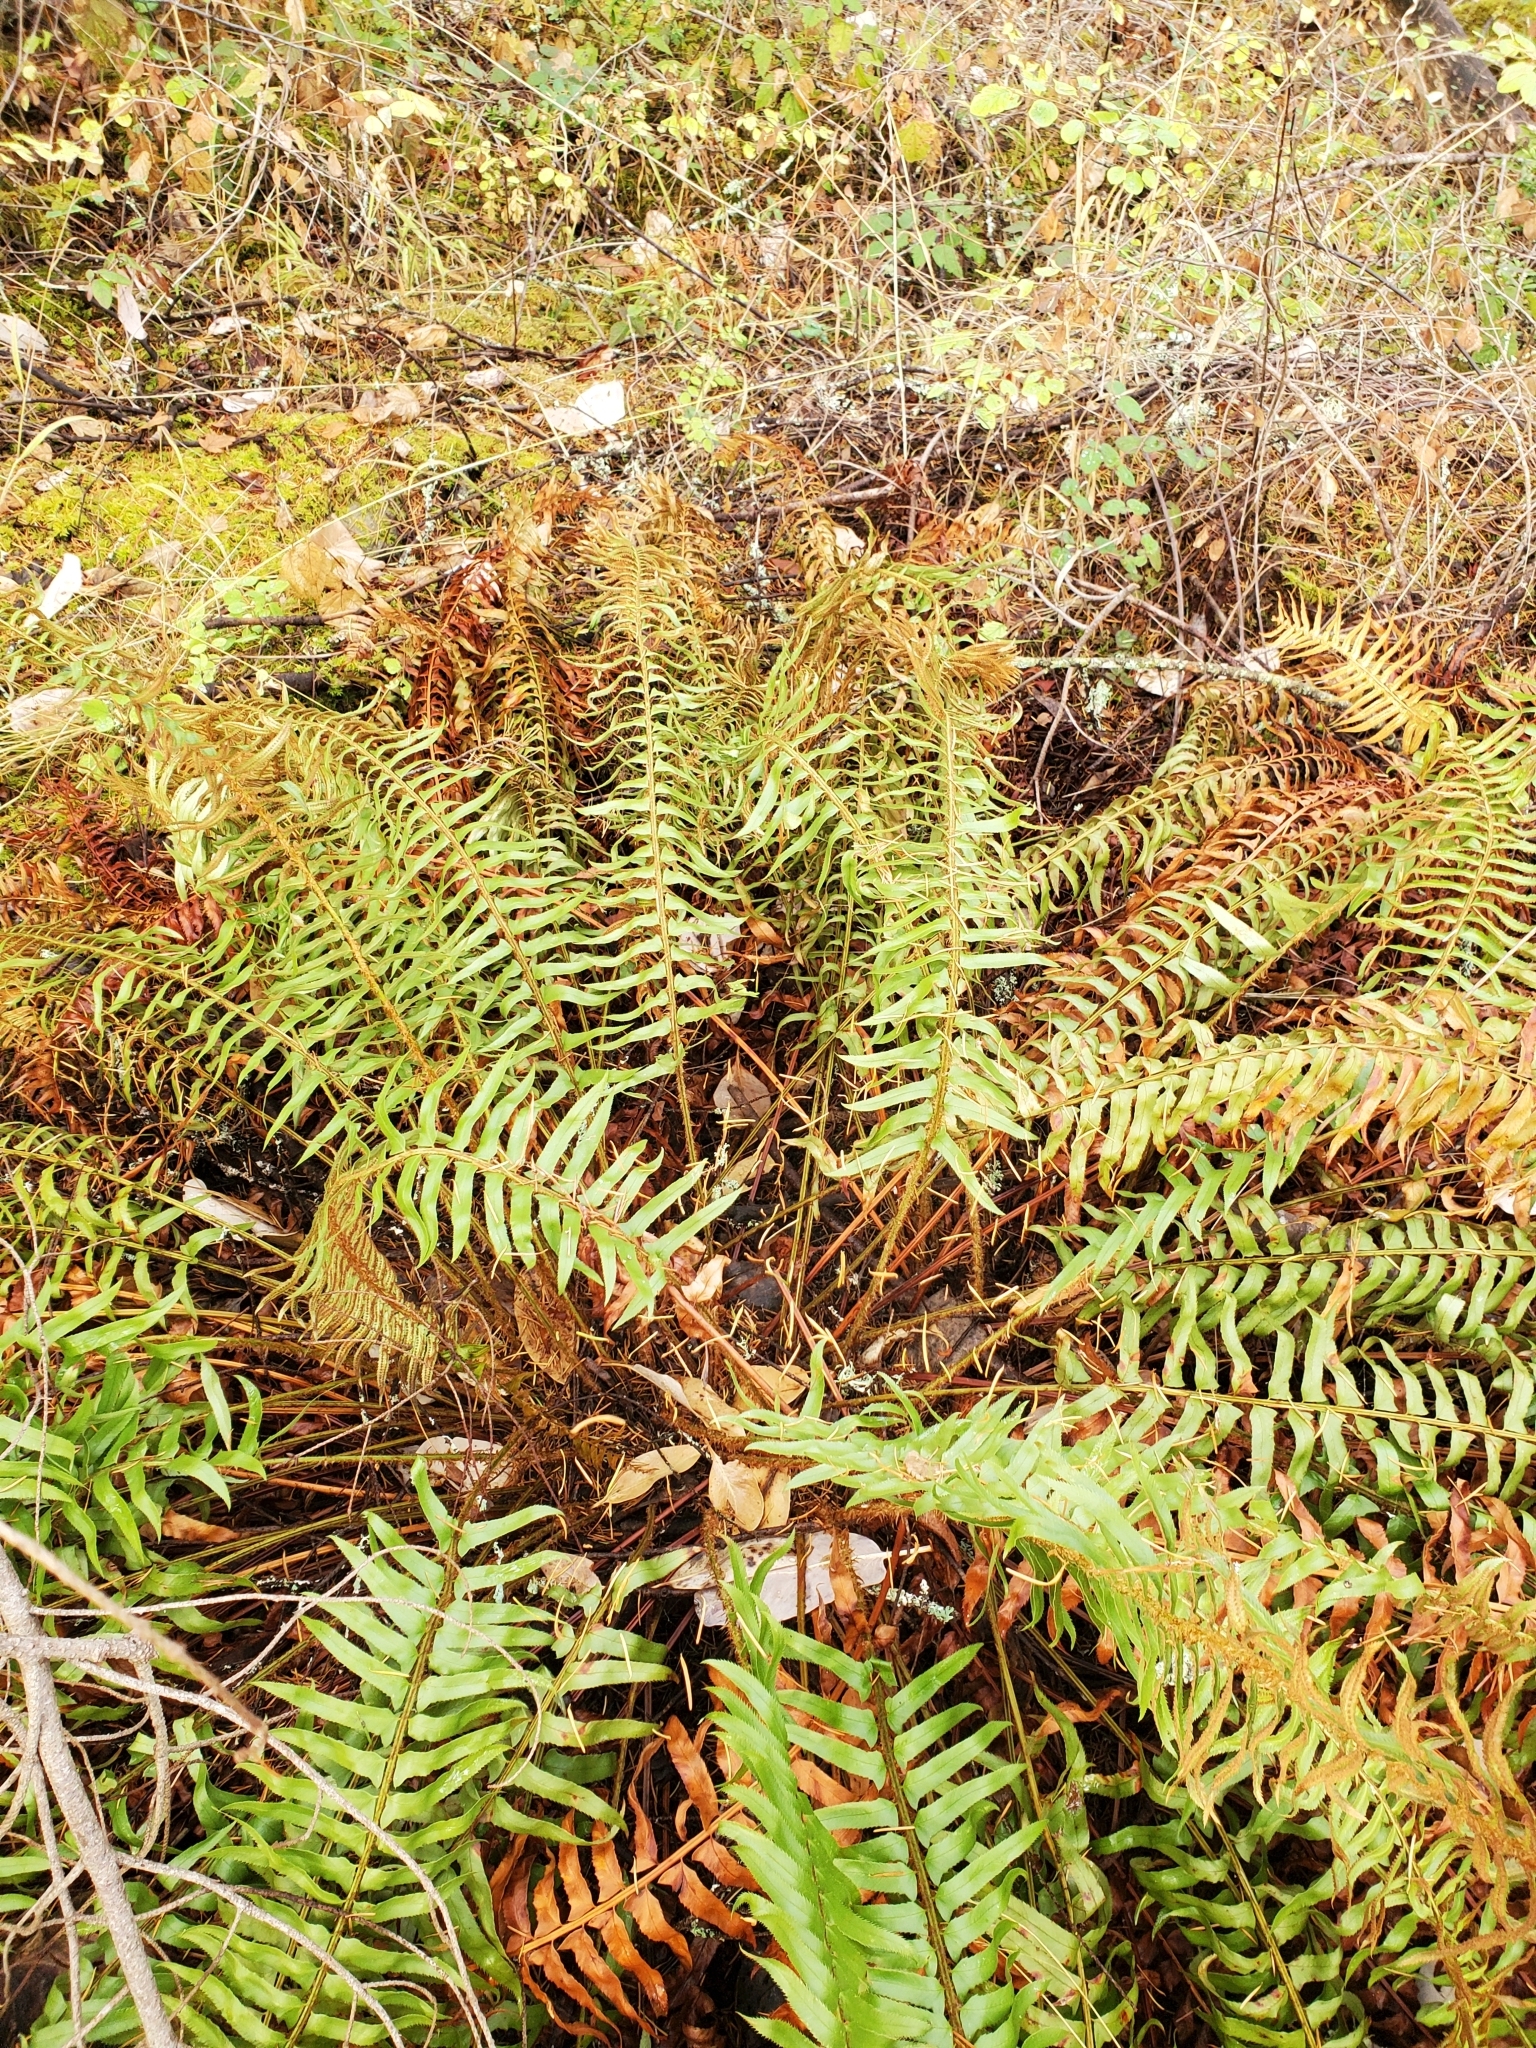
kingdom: Plantae
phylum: Tracheophyta
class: Polypodiopsida
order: Polypodiales
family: Dryopteridaceae
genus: Polystichum
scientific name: Polystichum munitum
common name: Western sword-fern
